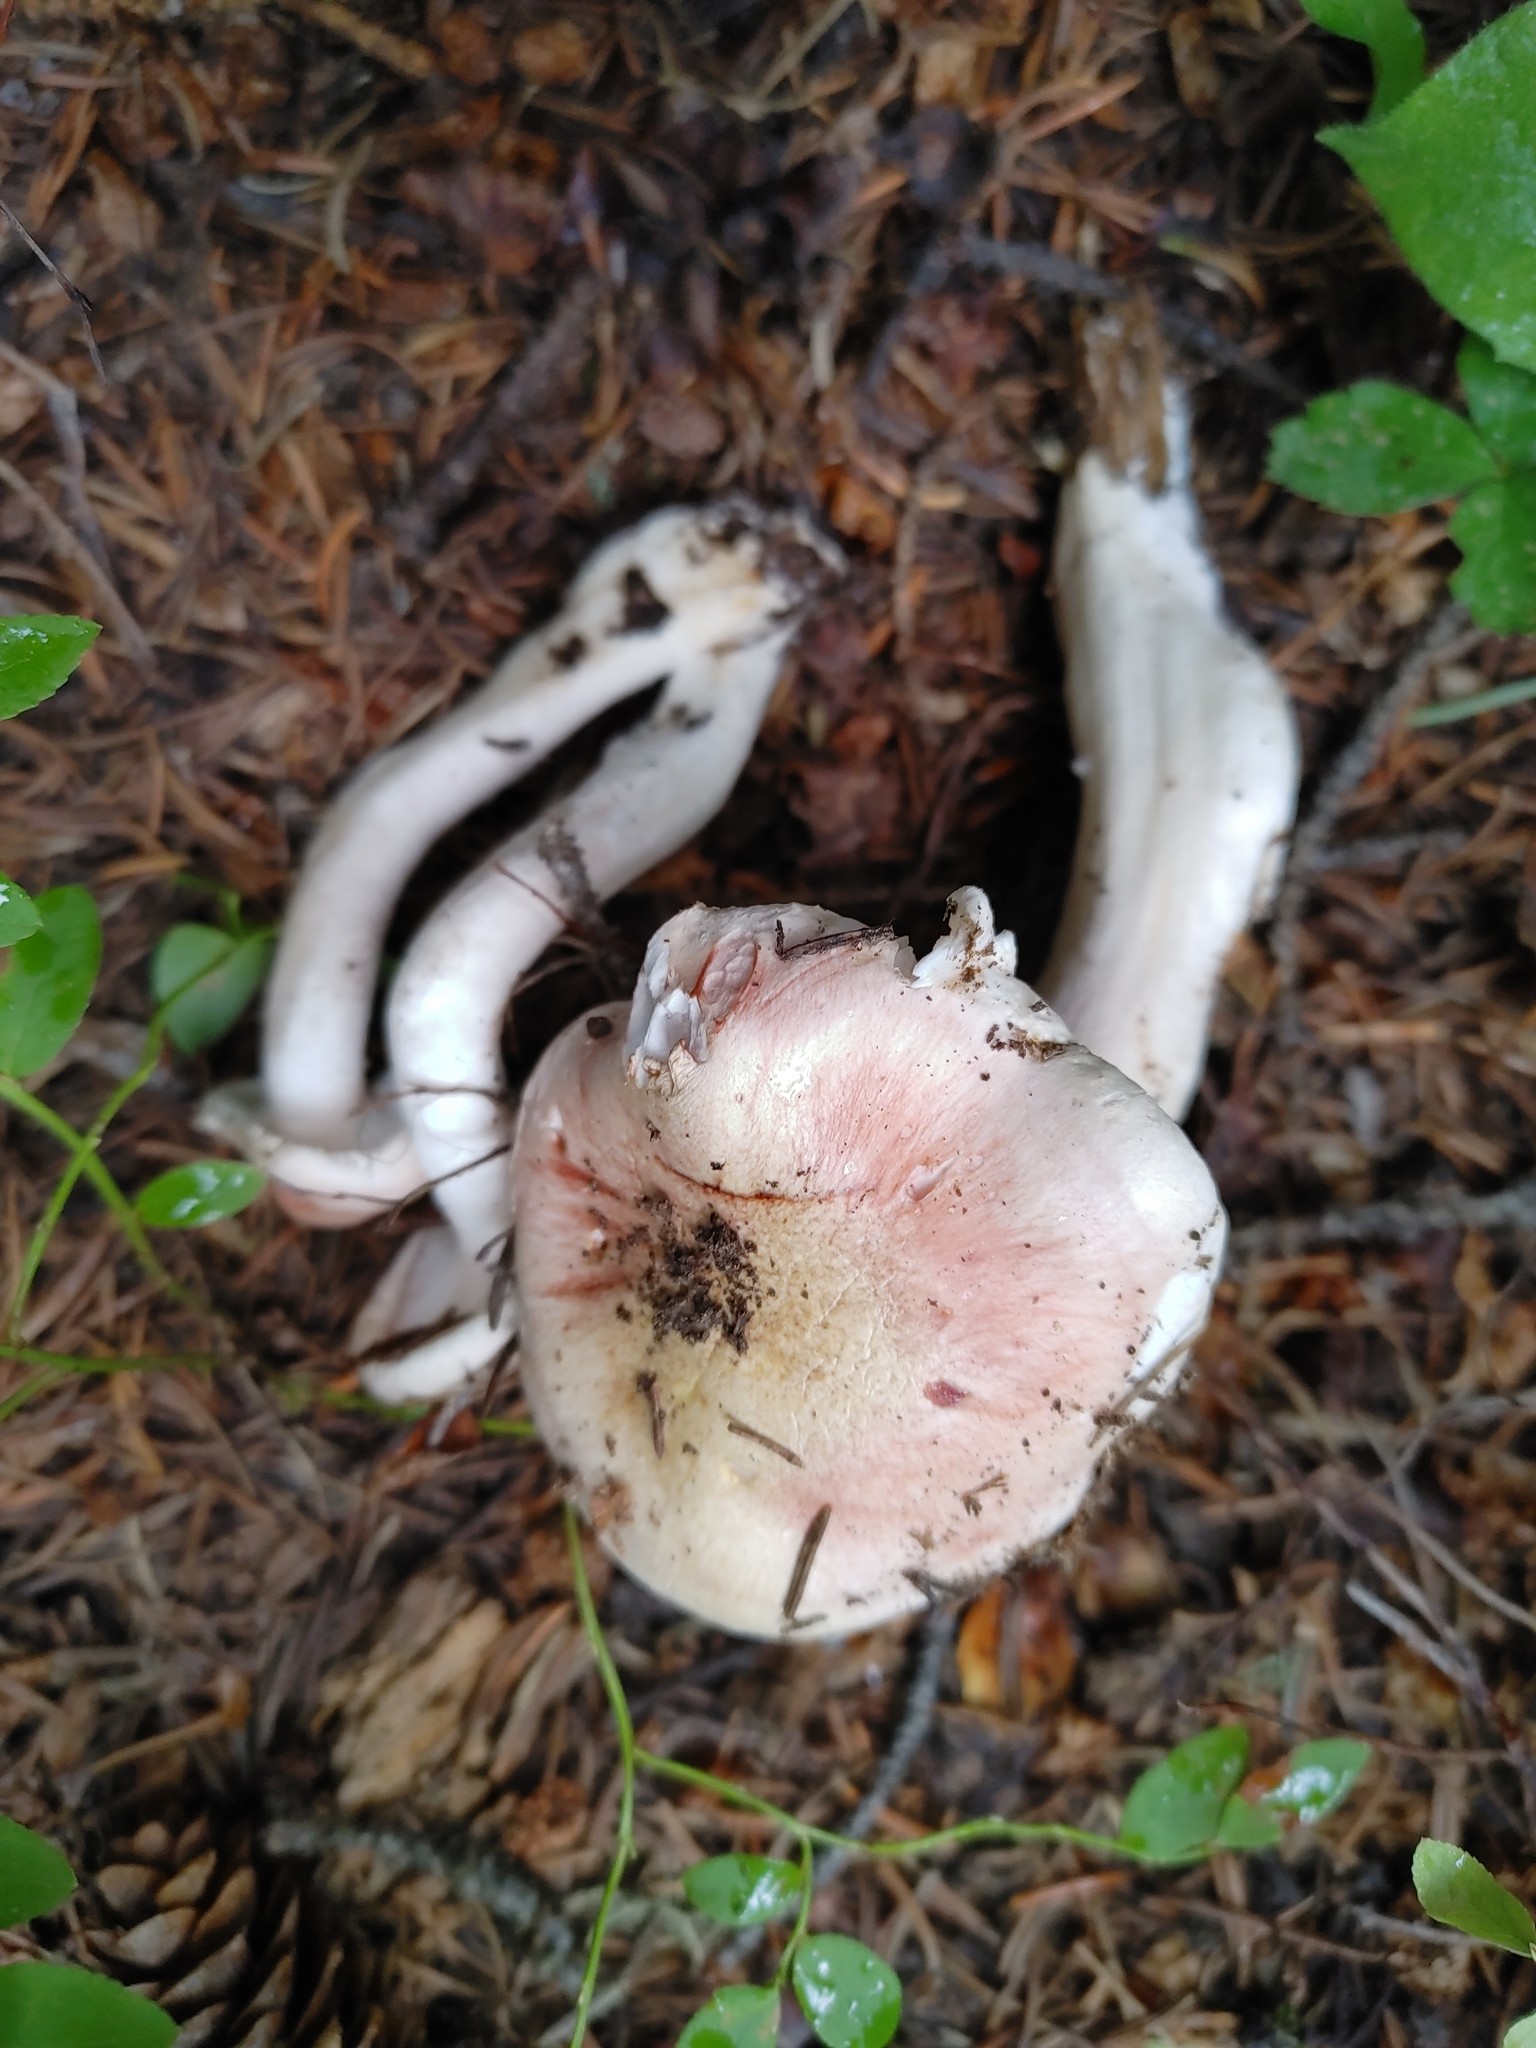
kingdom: Fungi
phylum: Basidiomycota
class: Agaricomycetes
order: Agaricales
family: Hygrophoraceae
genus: Hygrophorus
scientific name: Hygrophorus erubescens
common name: Blotched woodwax
